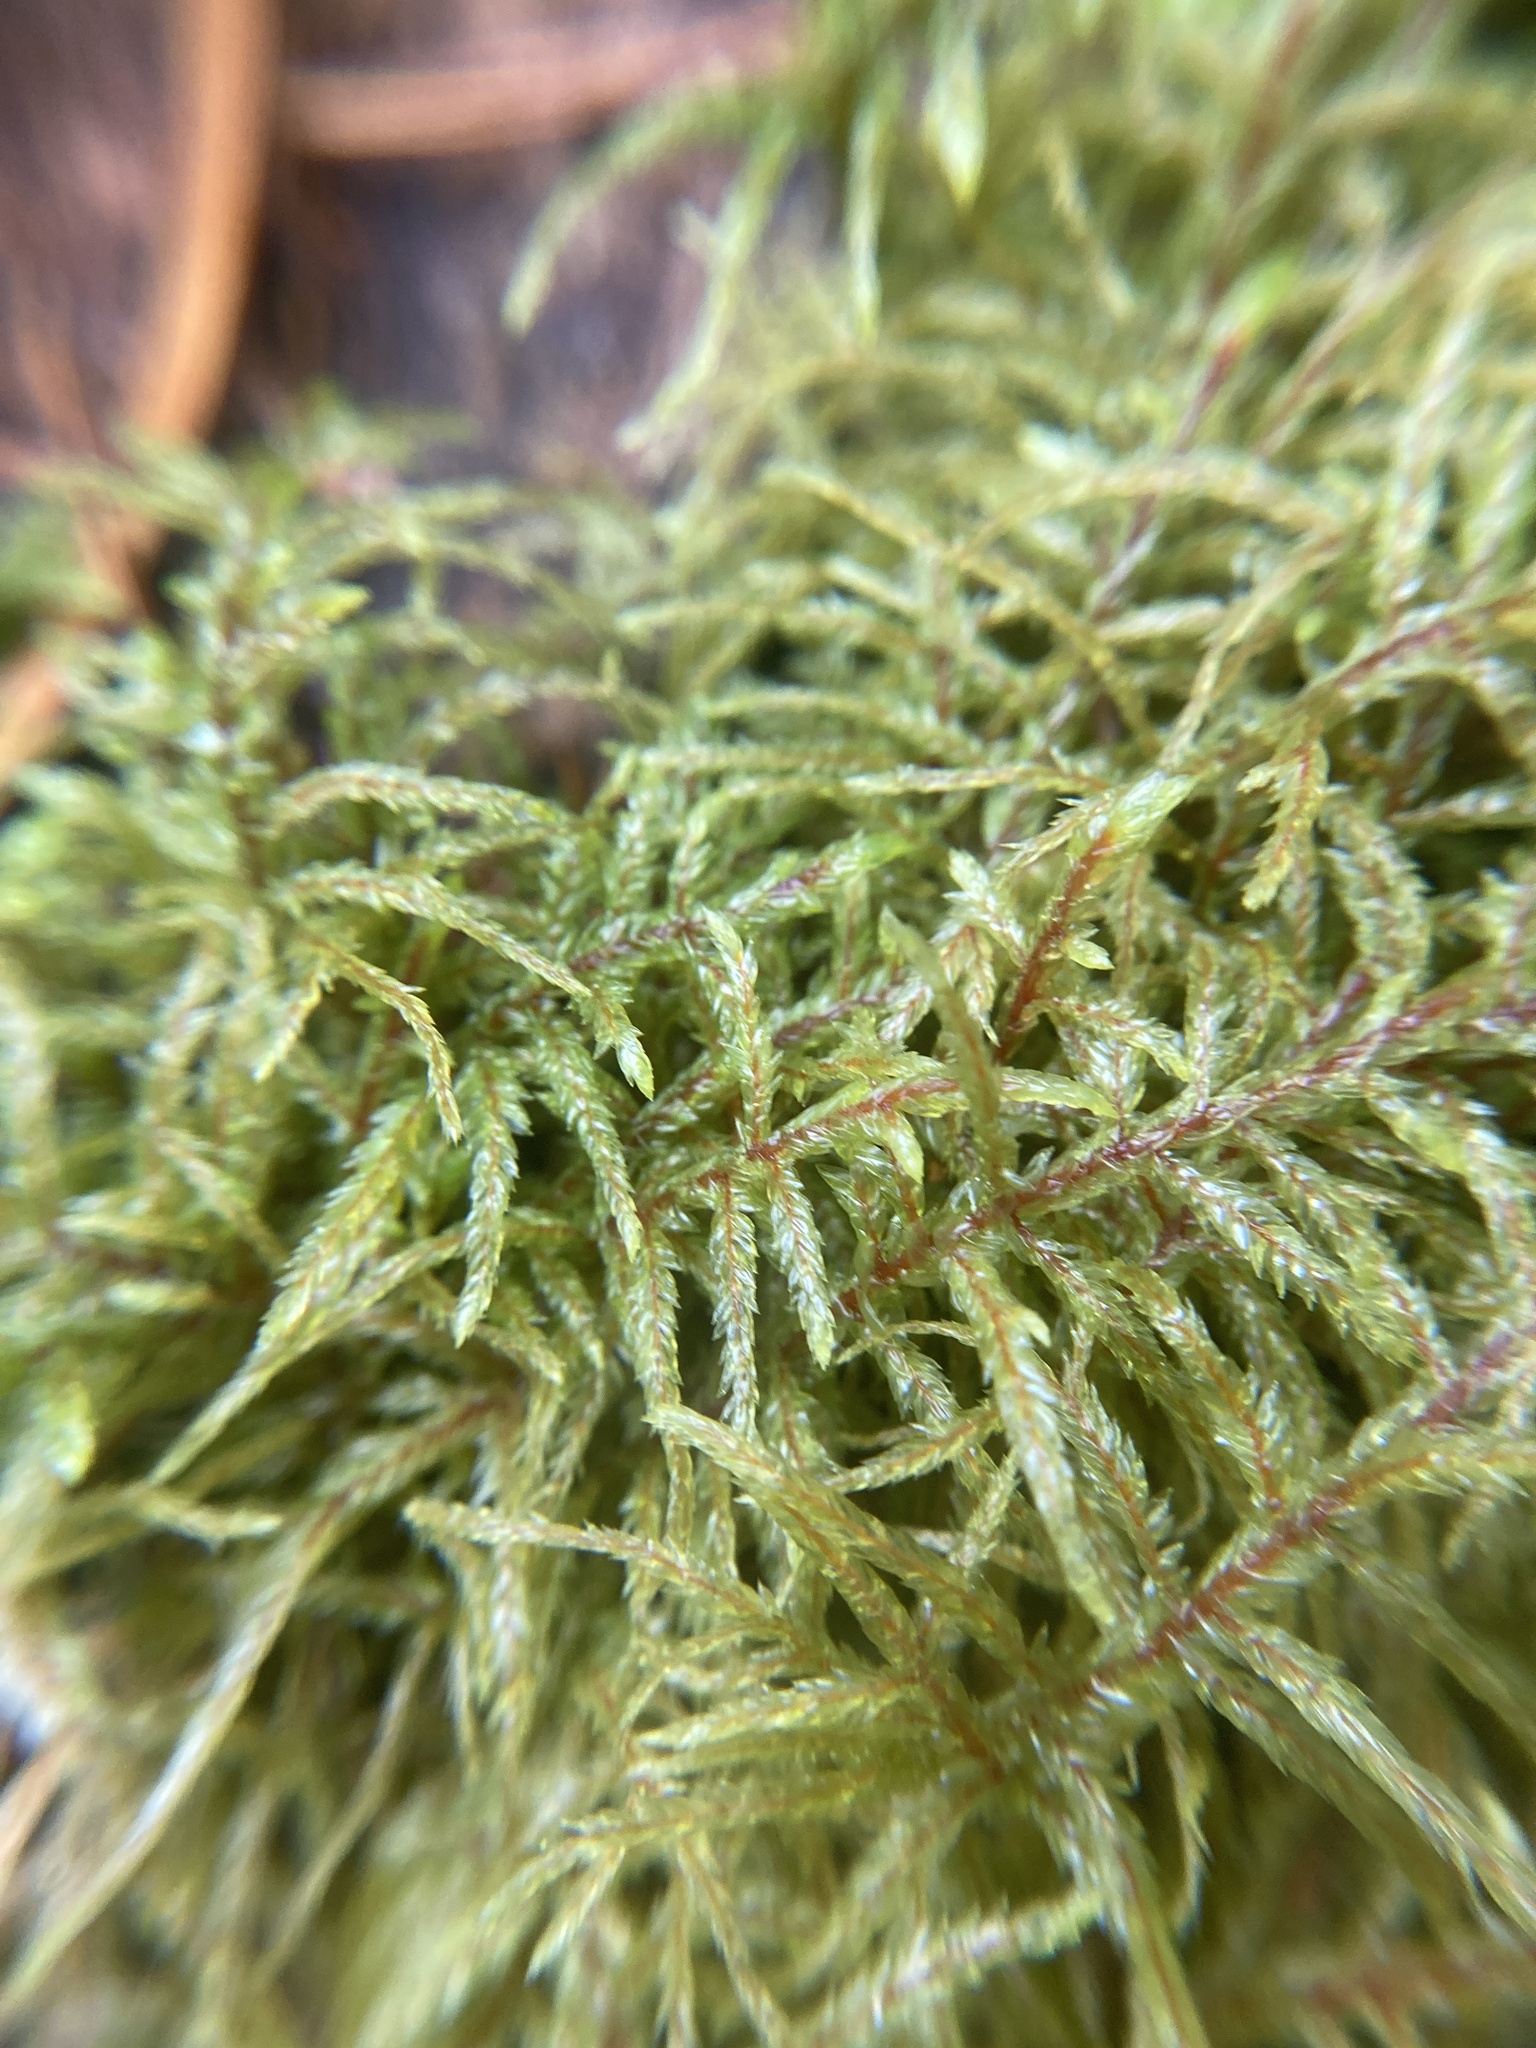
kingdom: Plantae
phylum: Bryophyta
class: Bryopsida
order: Hypnales
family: Hylocomiaceae
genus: Pleurozium
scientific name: Pleurozium schreberi
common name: Red-stemmed feather moss
